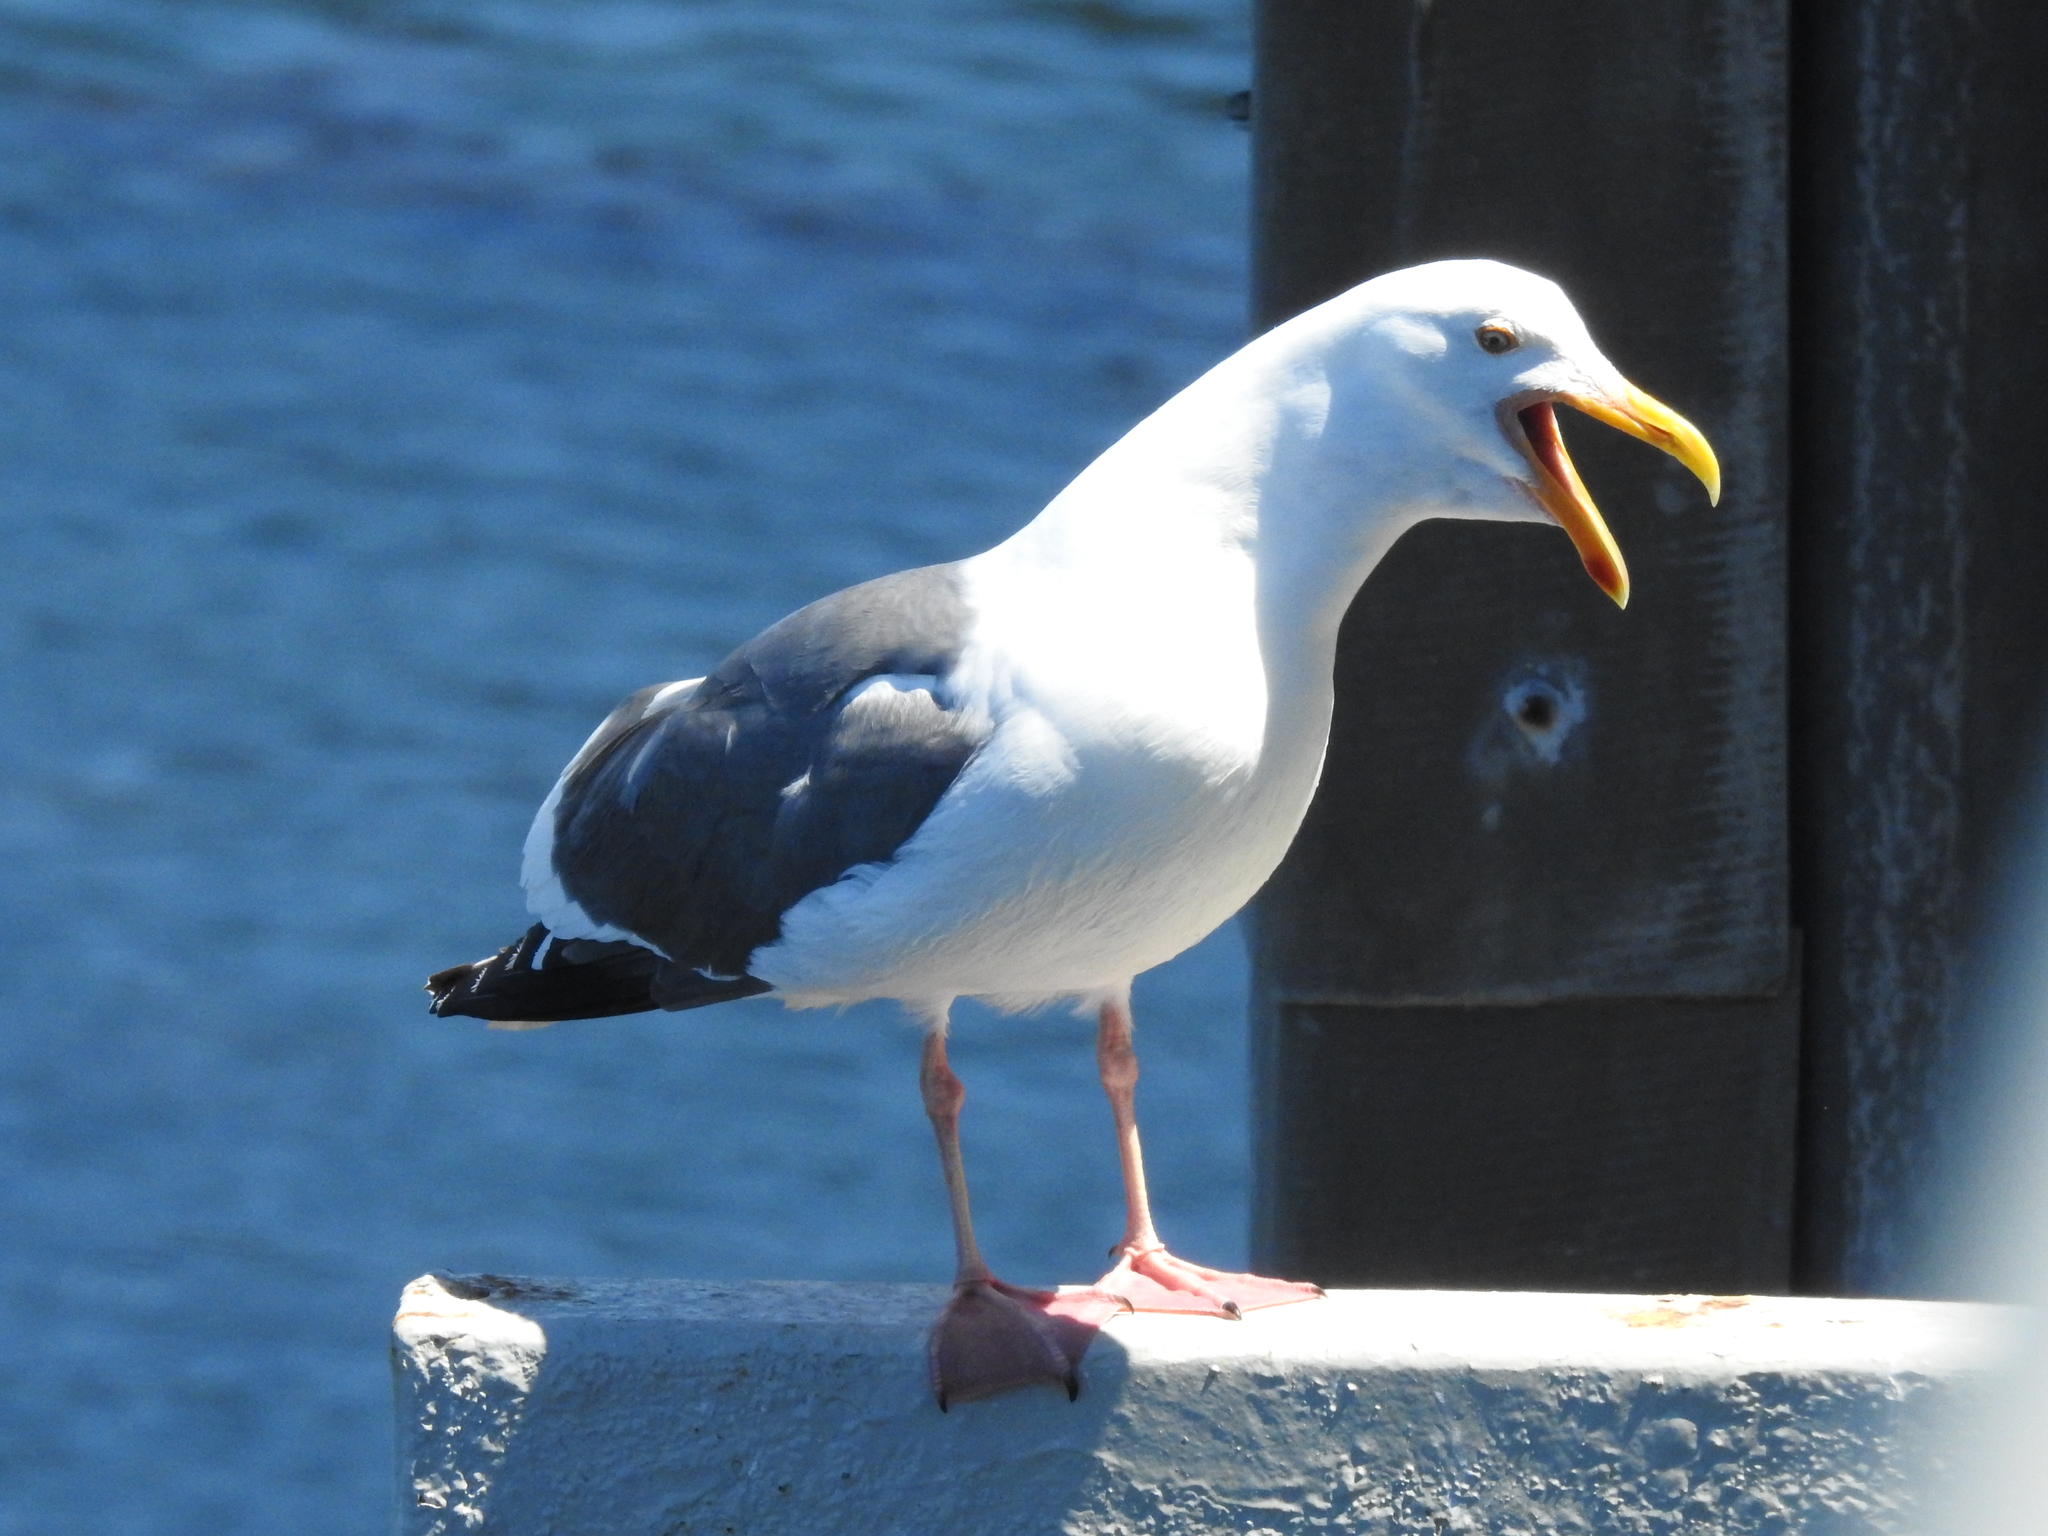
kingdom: Animalia
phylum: Chordata
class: Aves
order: Charadriiformes
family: Laridae
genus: Larus
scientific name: Larus occidentalis
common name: Western gull
